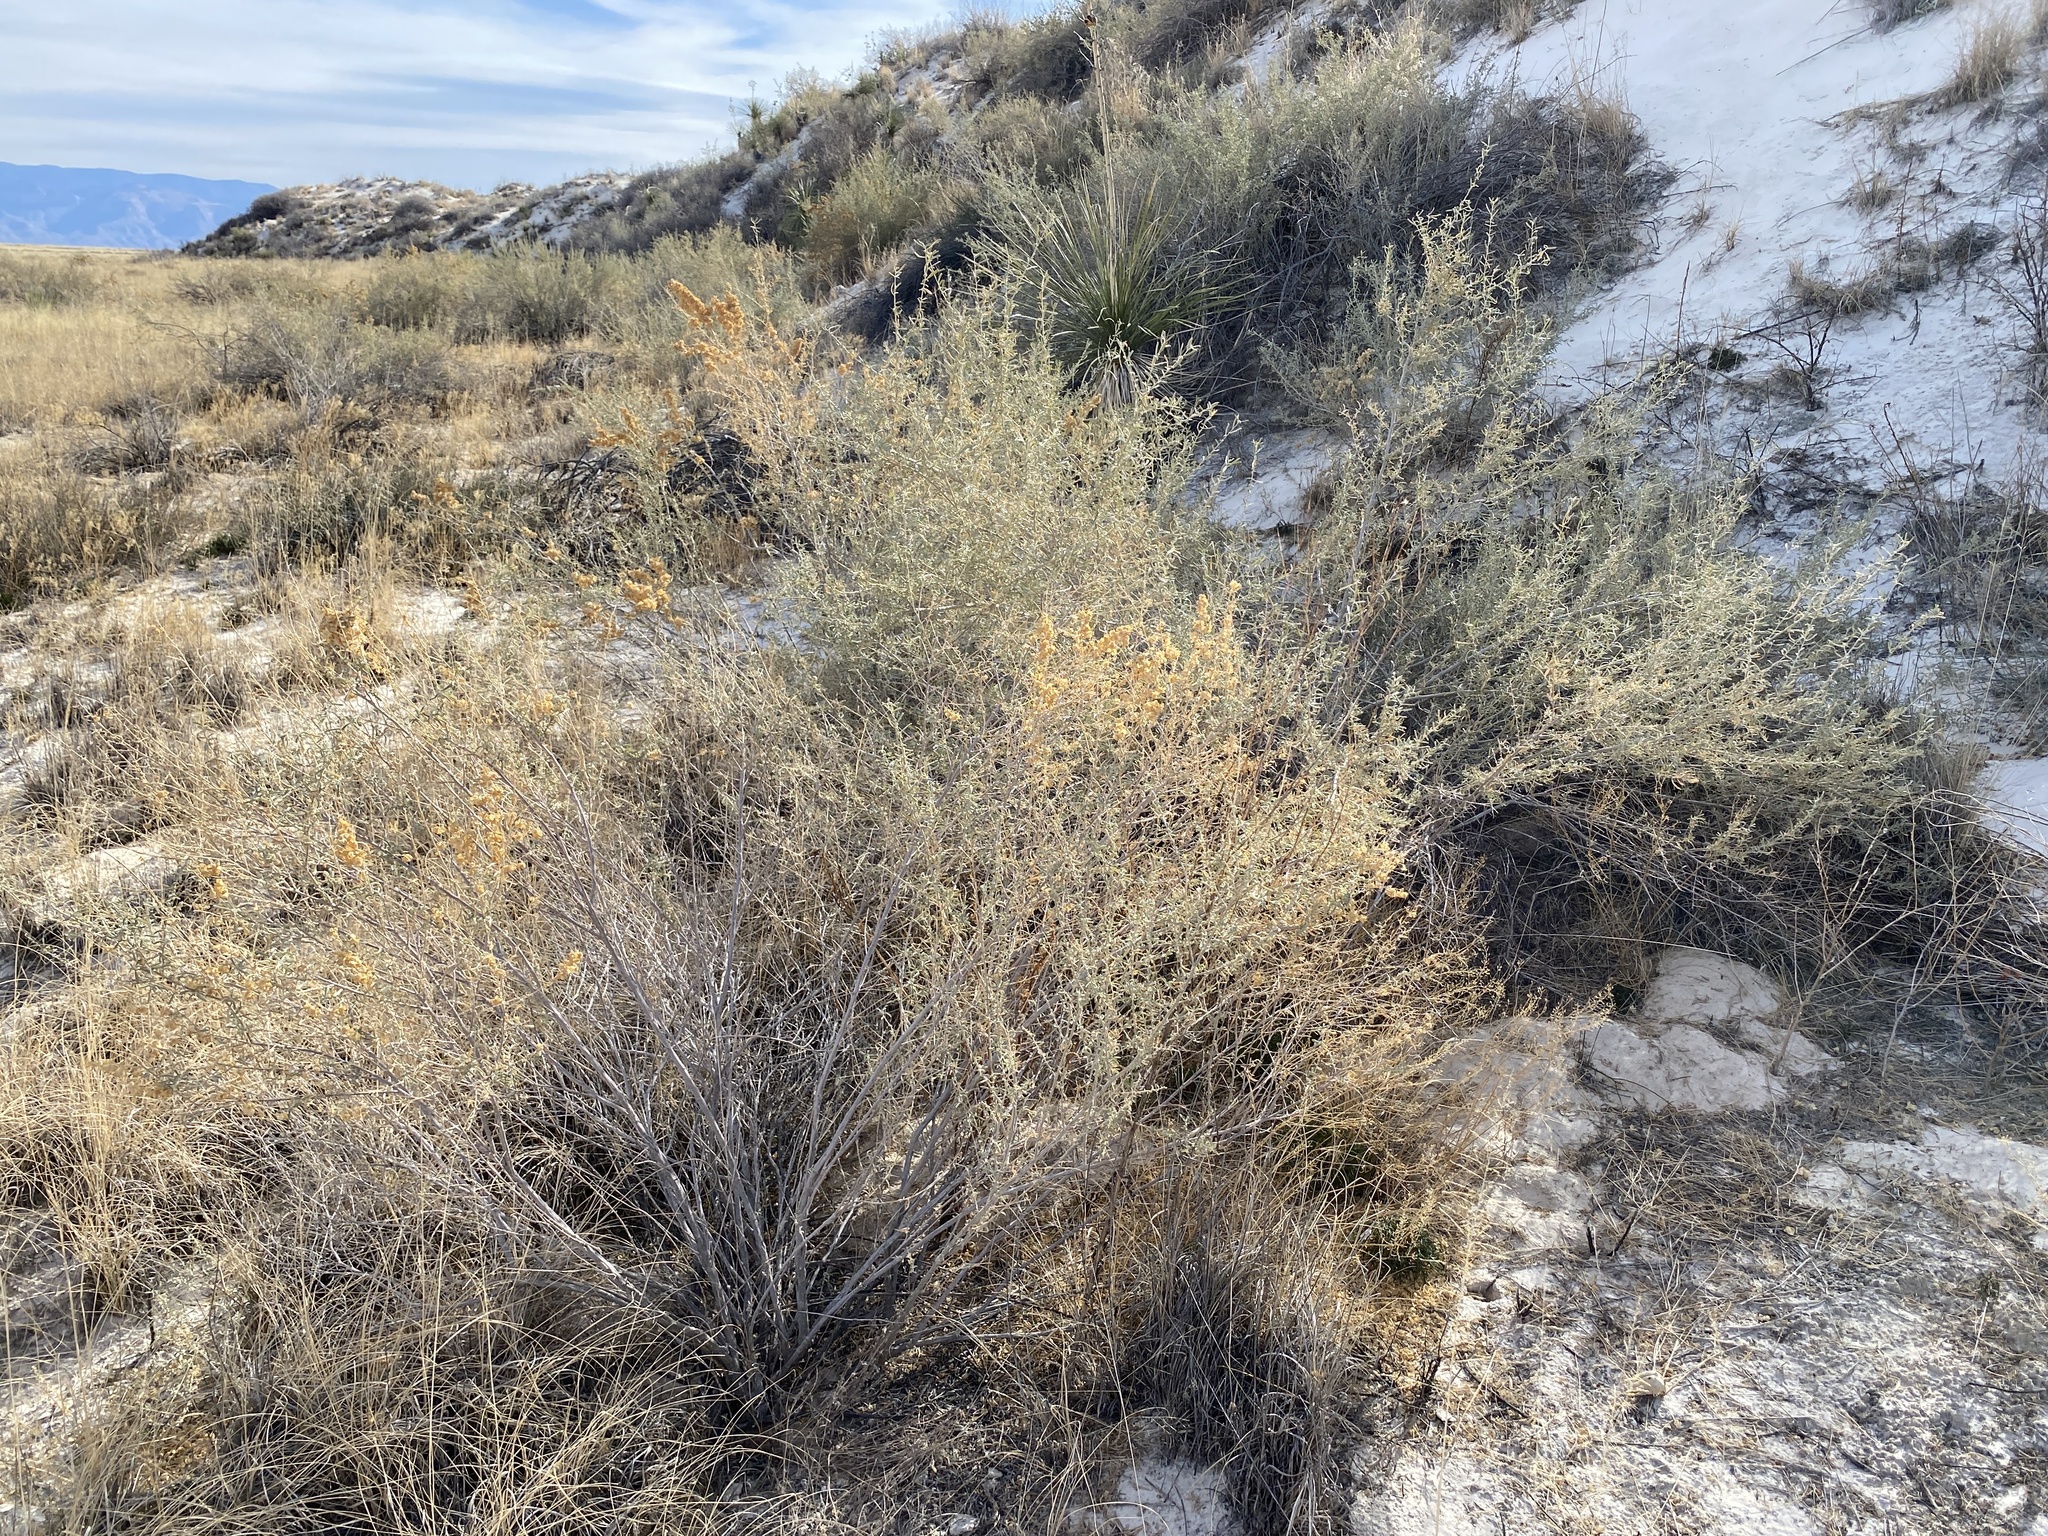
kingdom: Plantae
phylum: Tracheophyta
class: Magnoliopsida
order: Caryophyllales
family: Amaranthaceae
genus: Atriplex
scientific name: Atriplex canescens
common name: Four-wing saltbush
